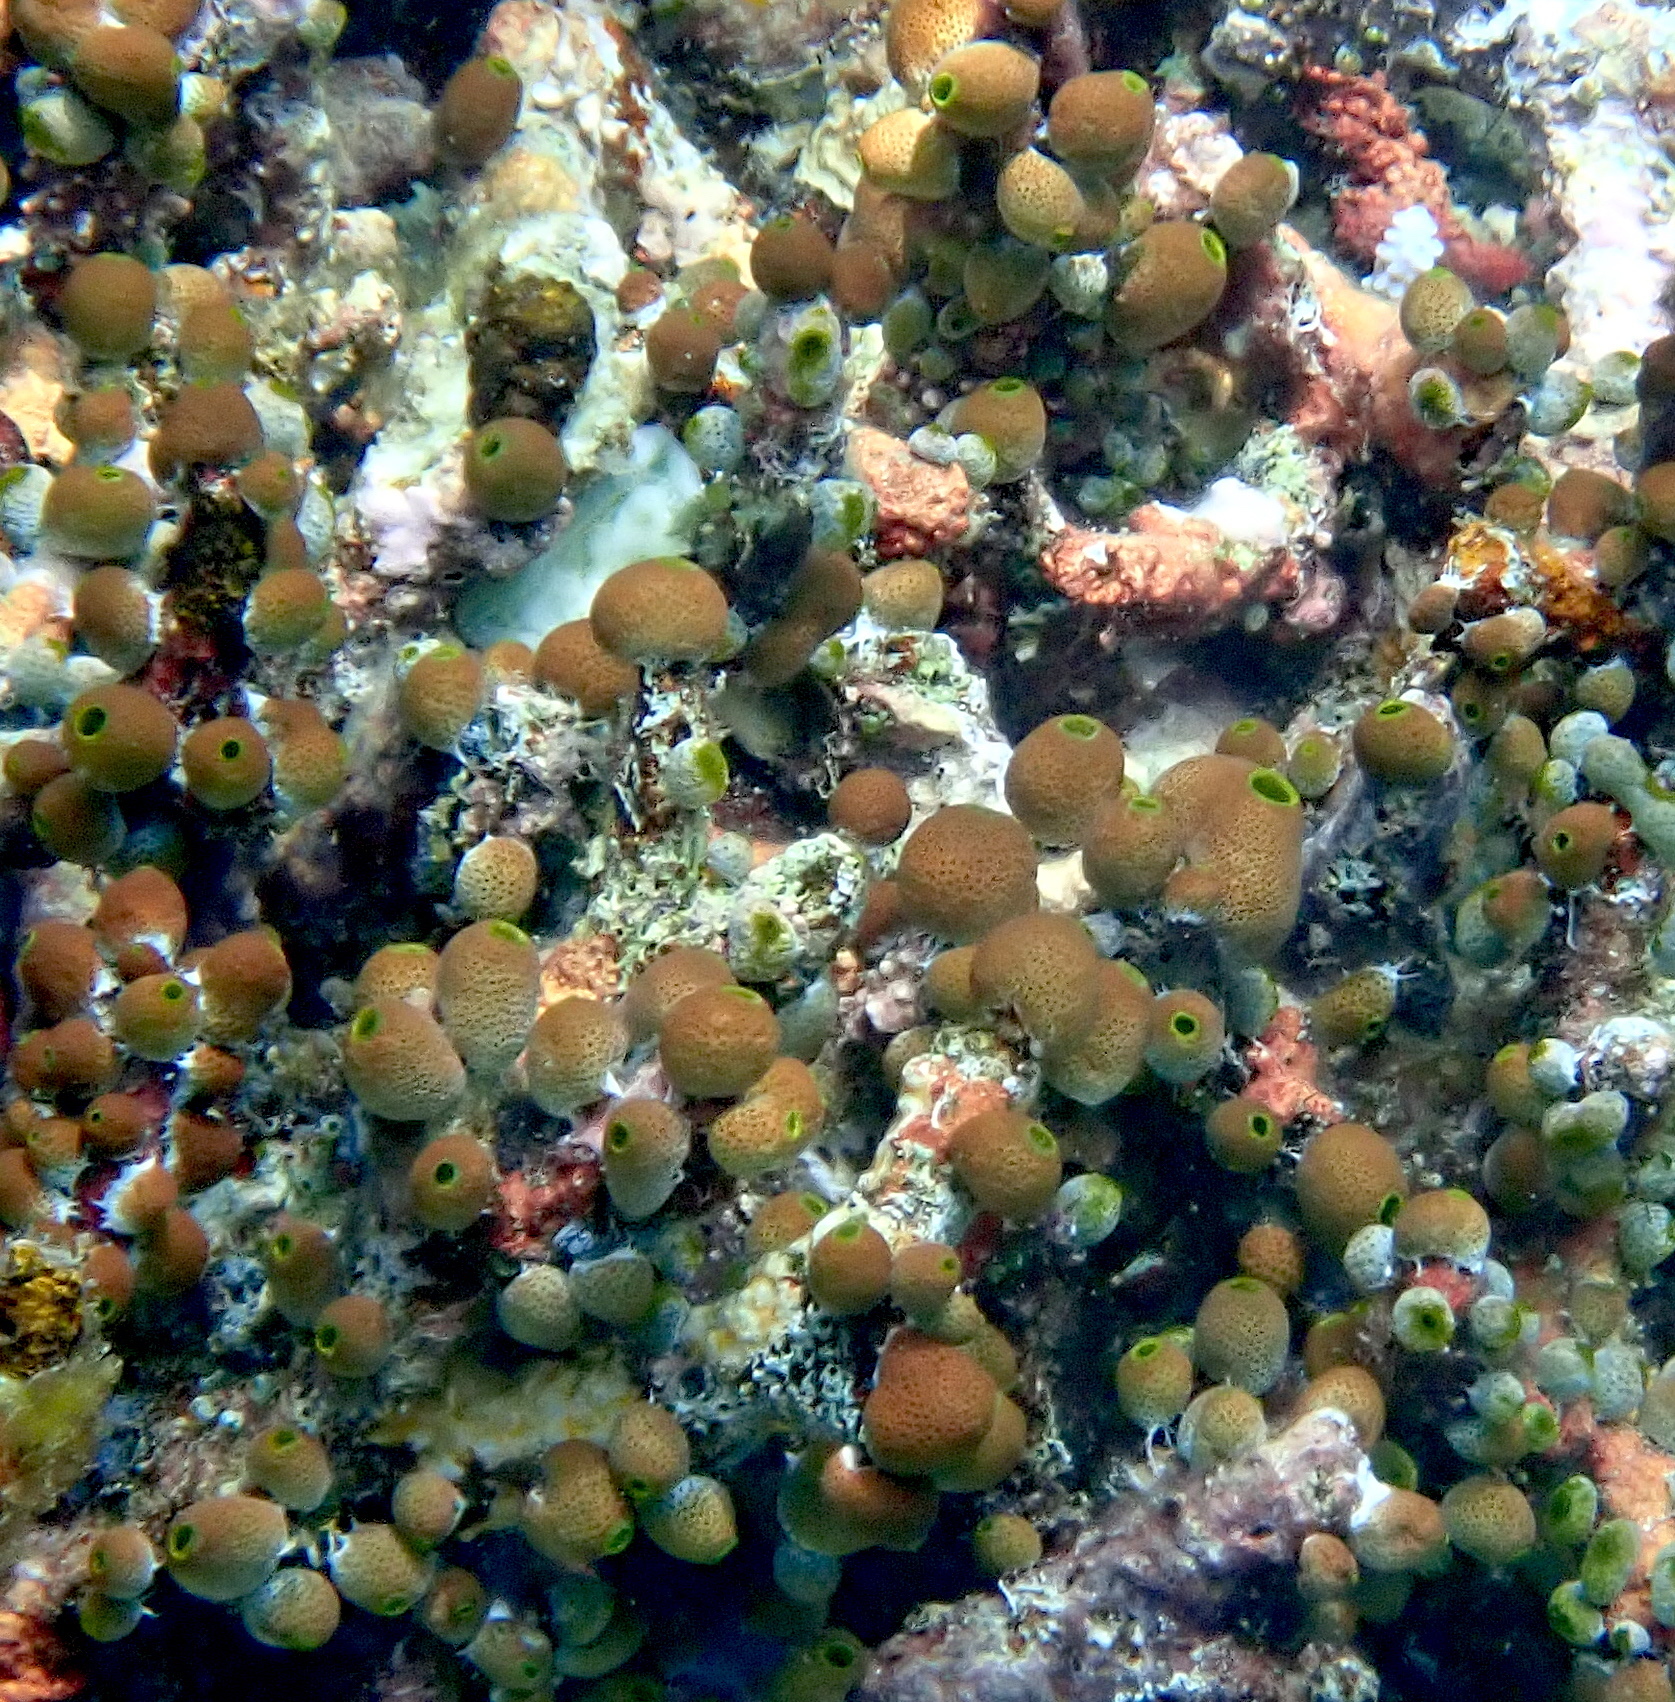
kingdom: Animalia
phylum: Chordata
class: Ascidiacea
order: Aplousobranchia
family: Didemnidae
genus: Didemnum
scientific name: Didemnum molle
